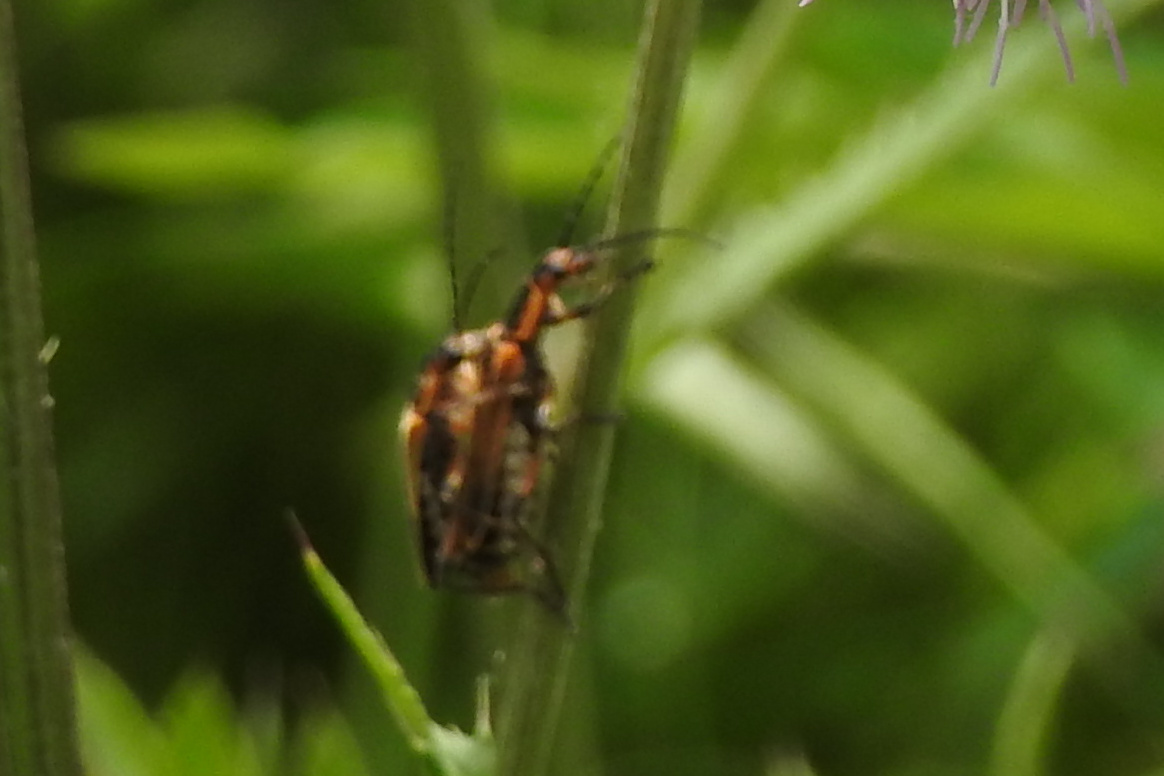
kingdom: Animalia
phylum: Arthropoda
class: Insecta
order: Coleoptera
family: Cantharidae
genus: Chauliognathus
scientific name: Chauliognathus marginatus
